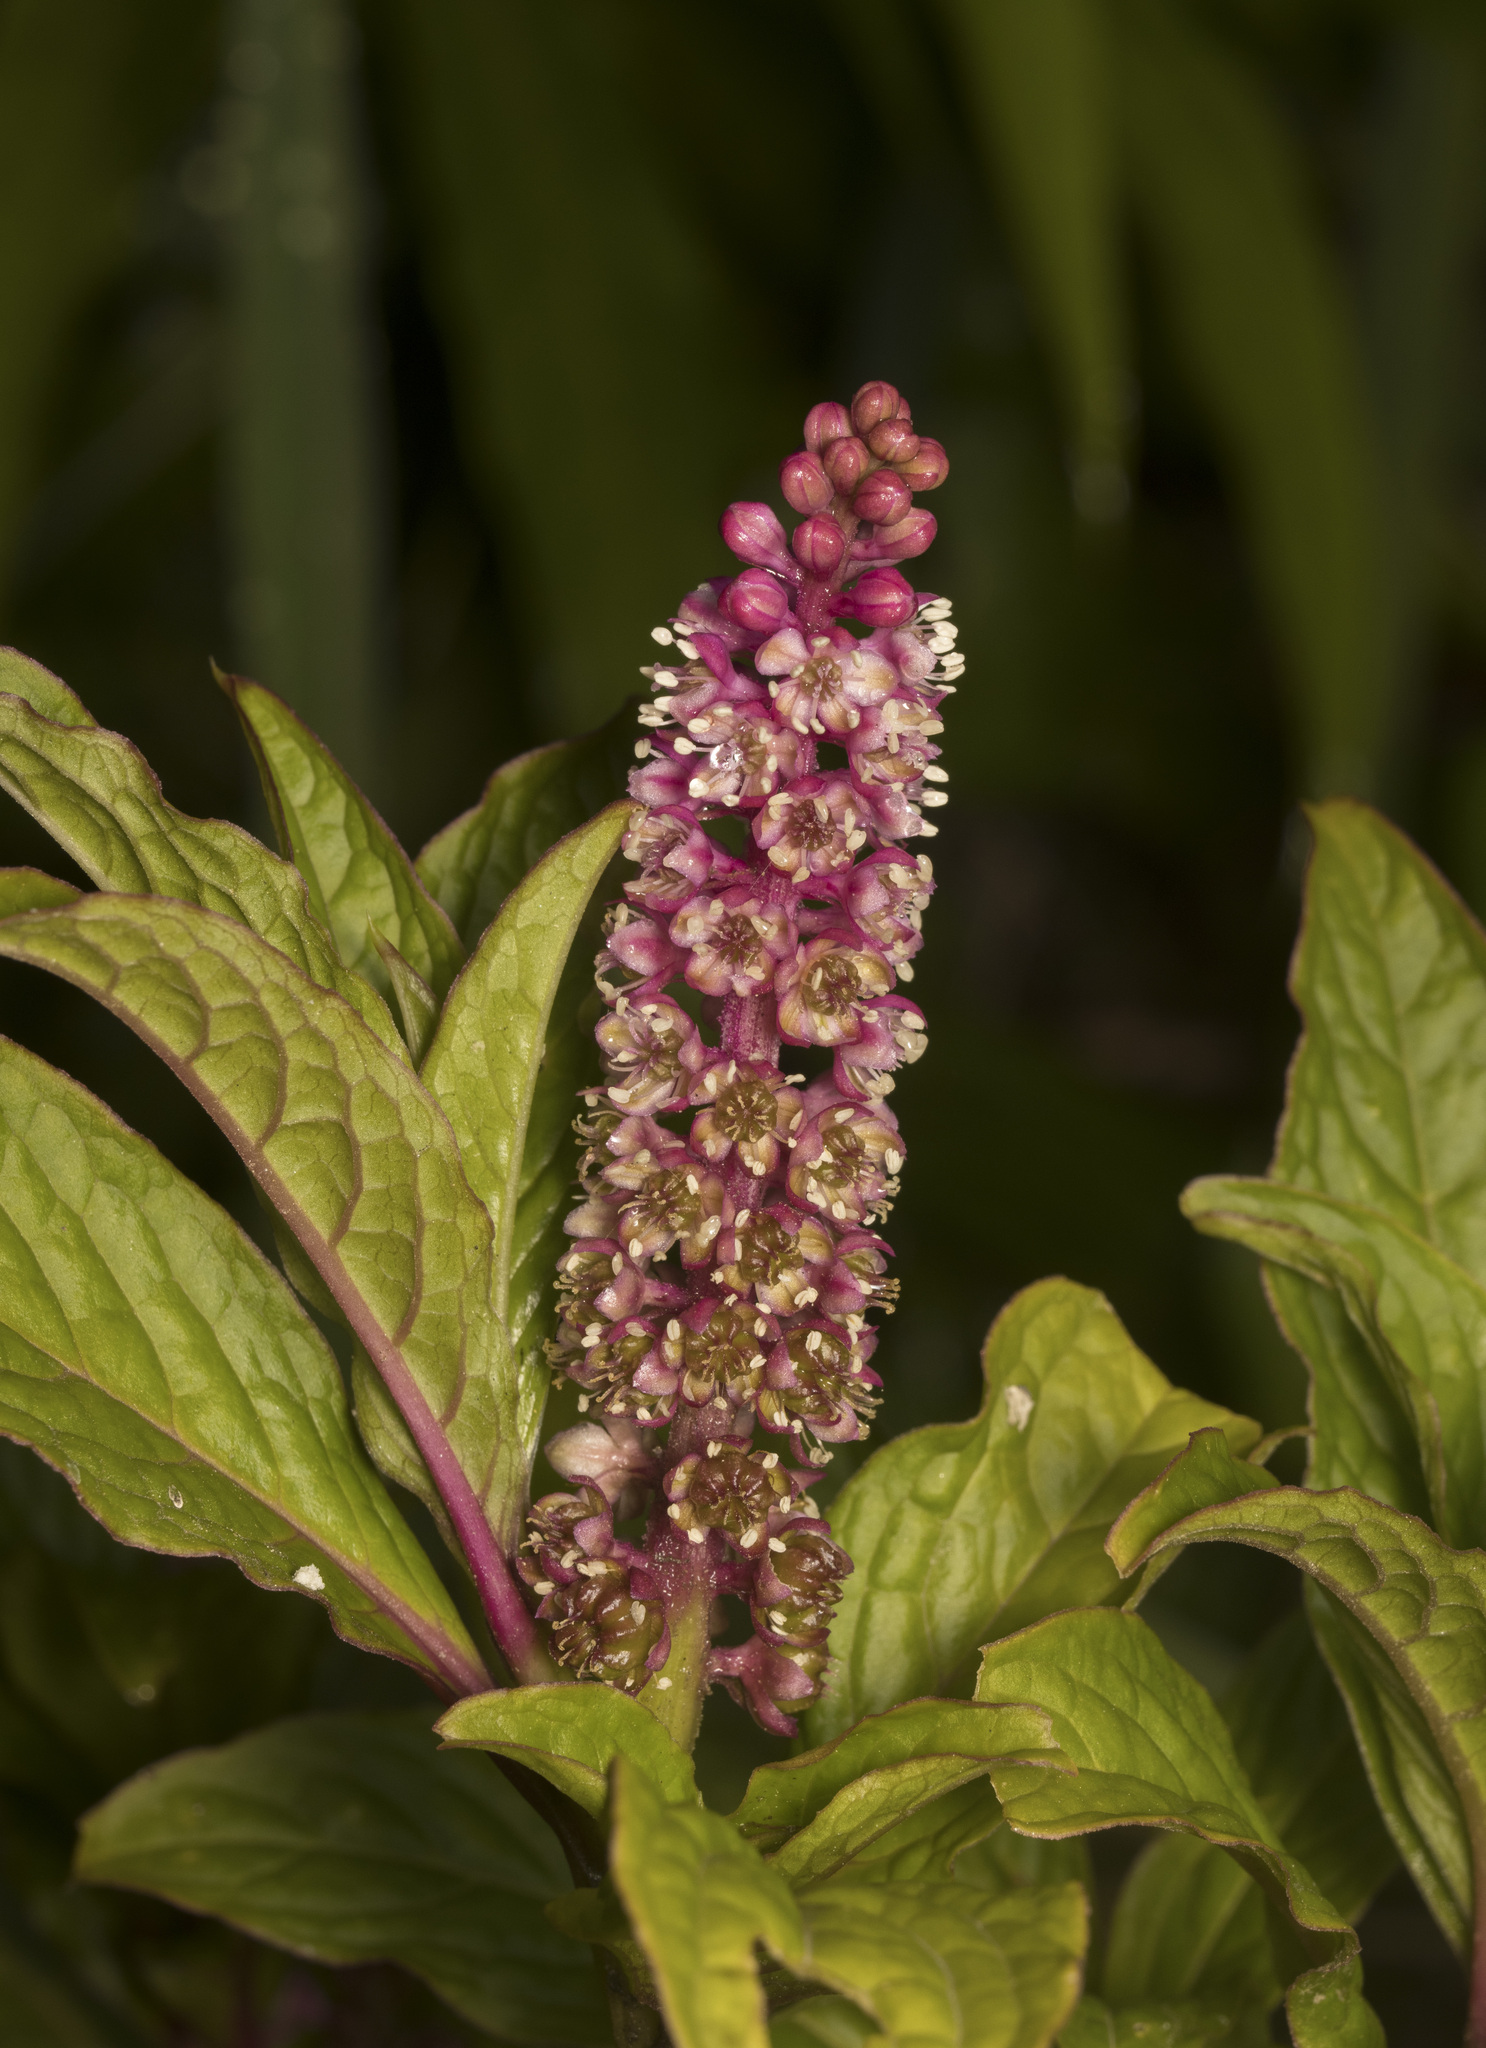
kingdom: Plantae
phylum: Tracheophyta
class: Magnoliopsida
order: Caryophyllales
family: Phytolaccaceae
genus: Phytolacca
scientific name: Phytolacca bogotensis
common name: Southern pokeweed
